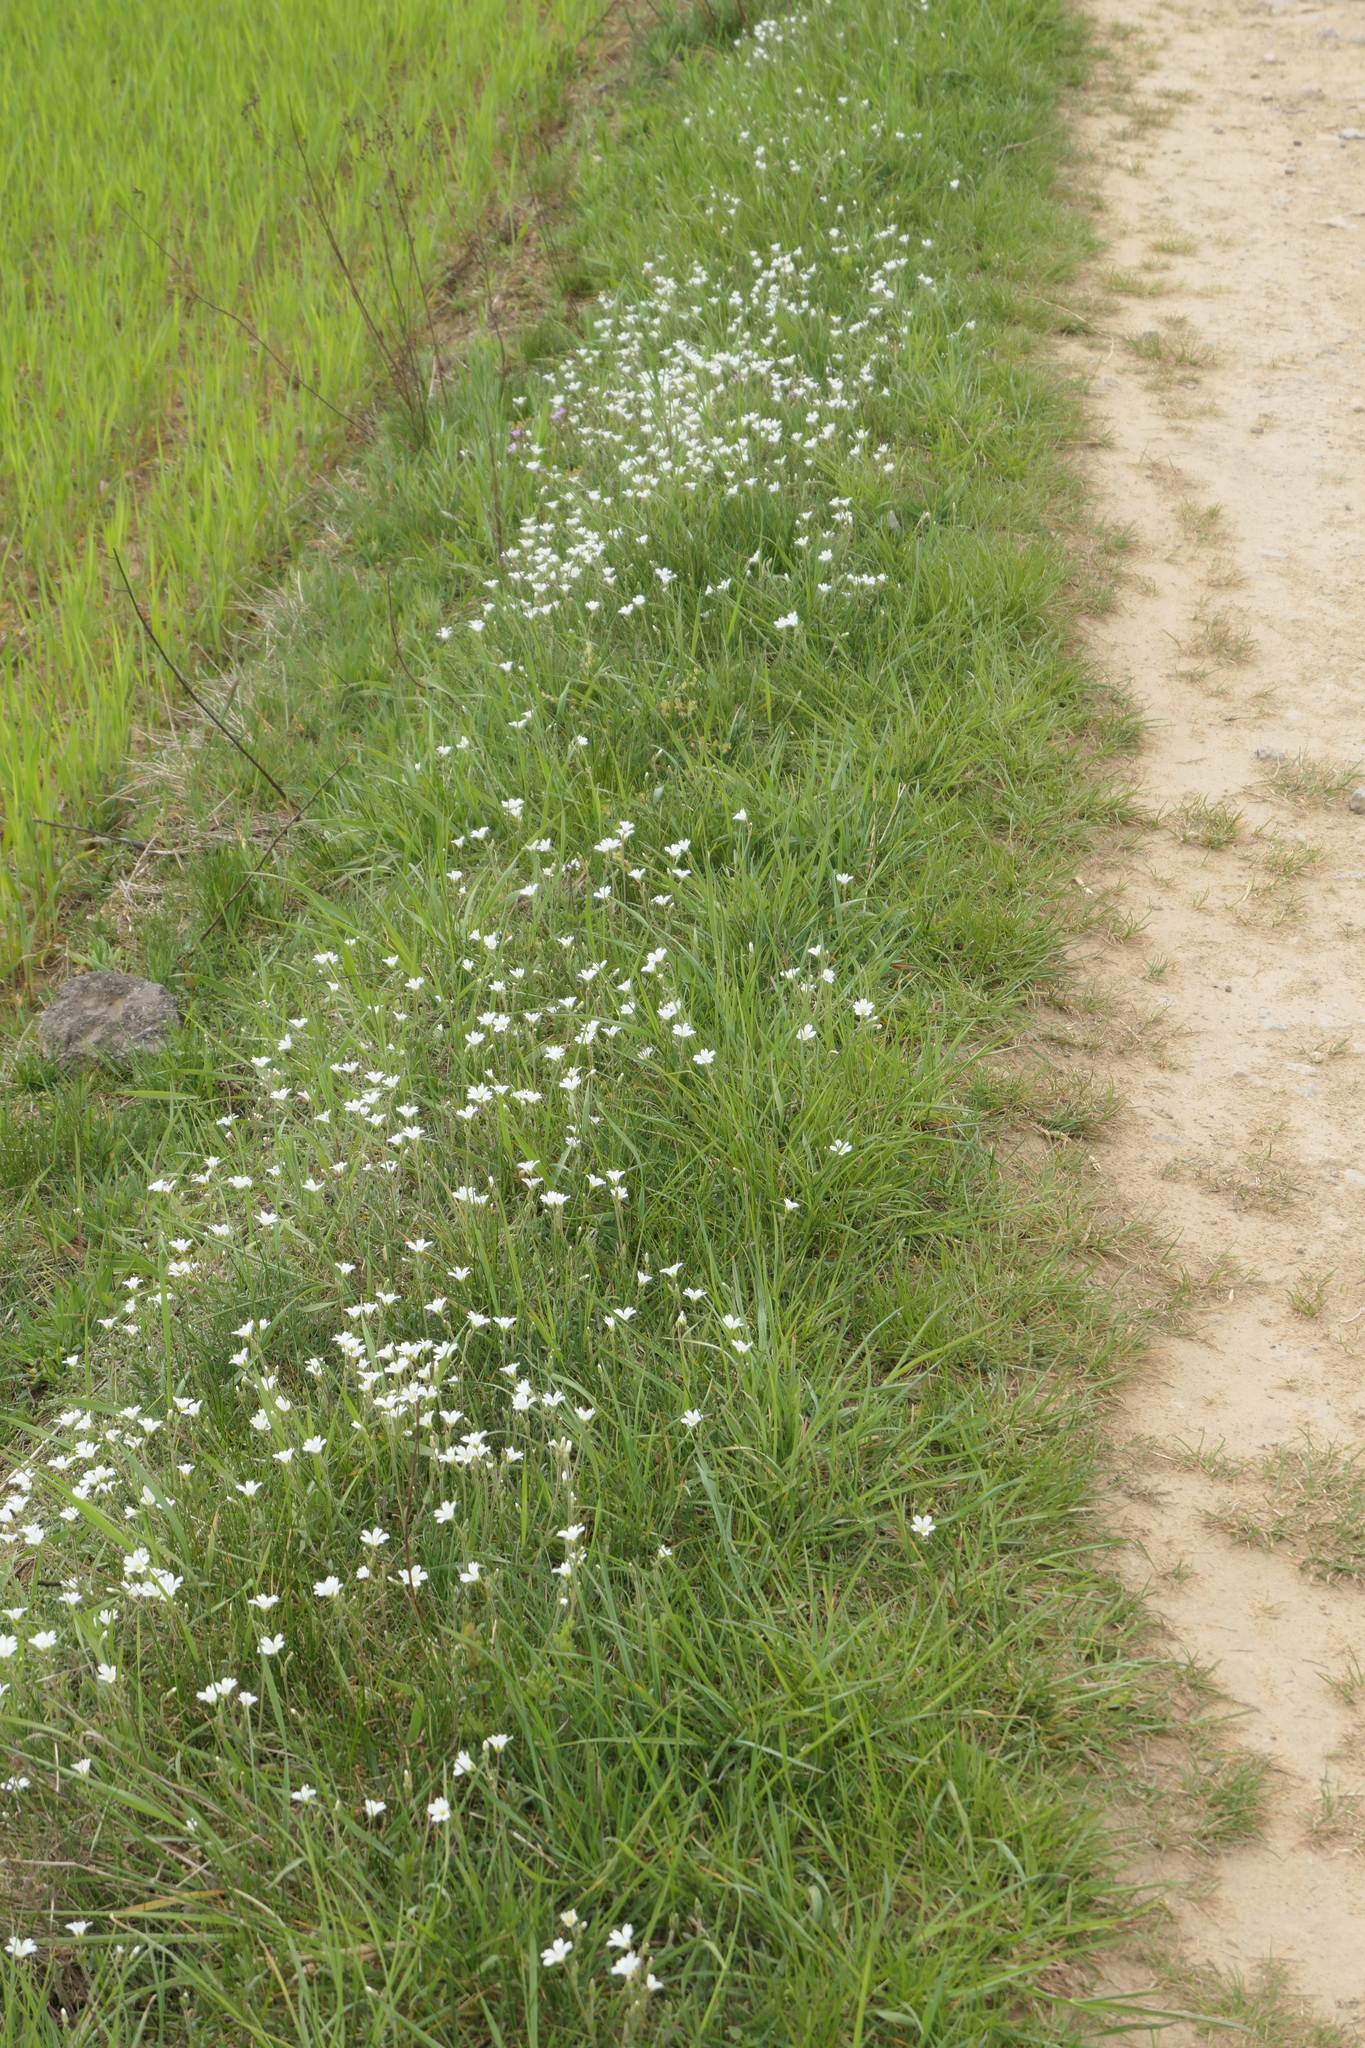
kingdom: Plantae
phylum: Tracheophyta
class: Magnoliopsida
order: Caryophyllales
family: Caryophyllaceae
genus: Cerastium
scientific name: Cerastium arvense
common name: Field mouse-ear
